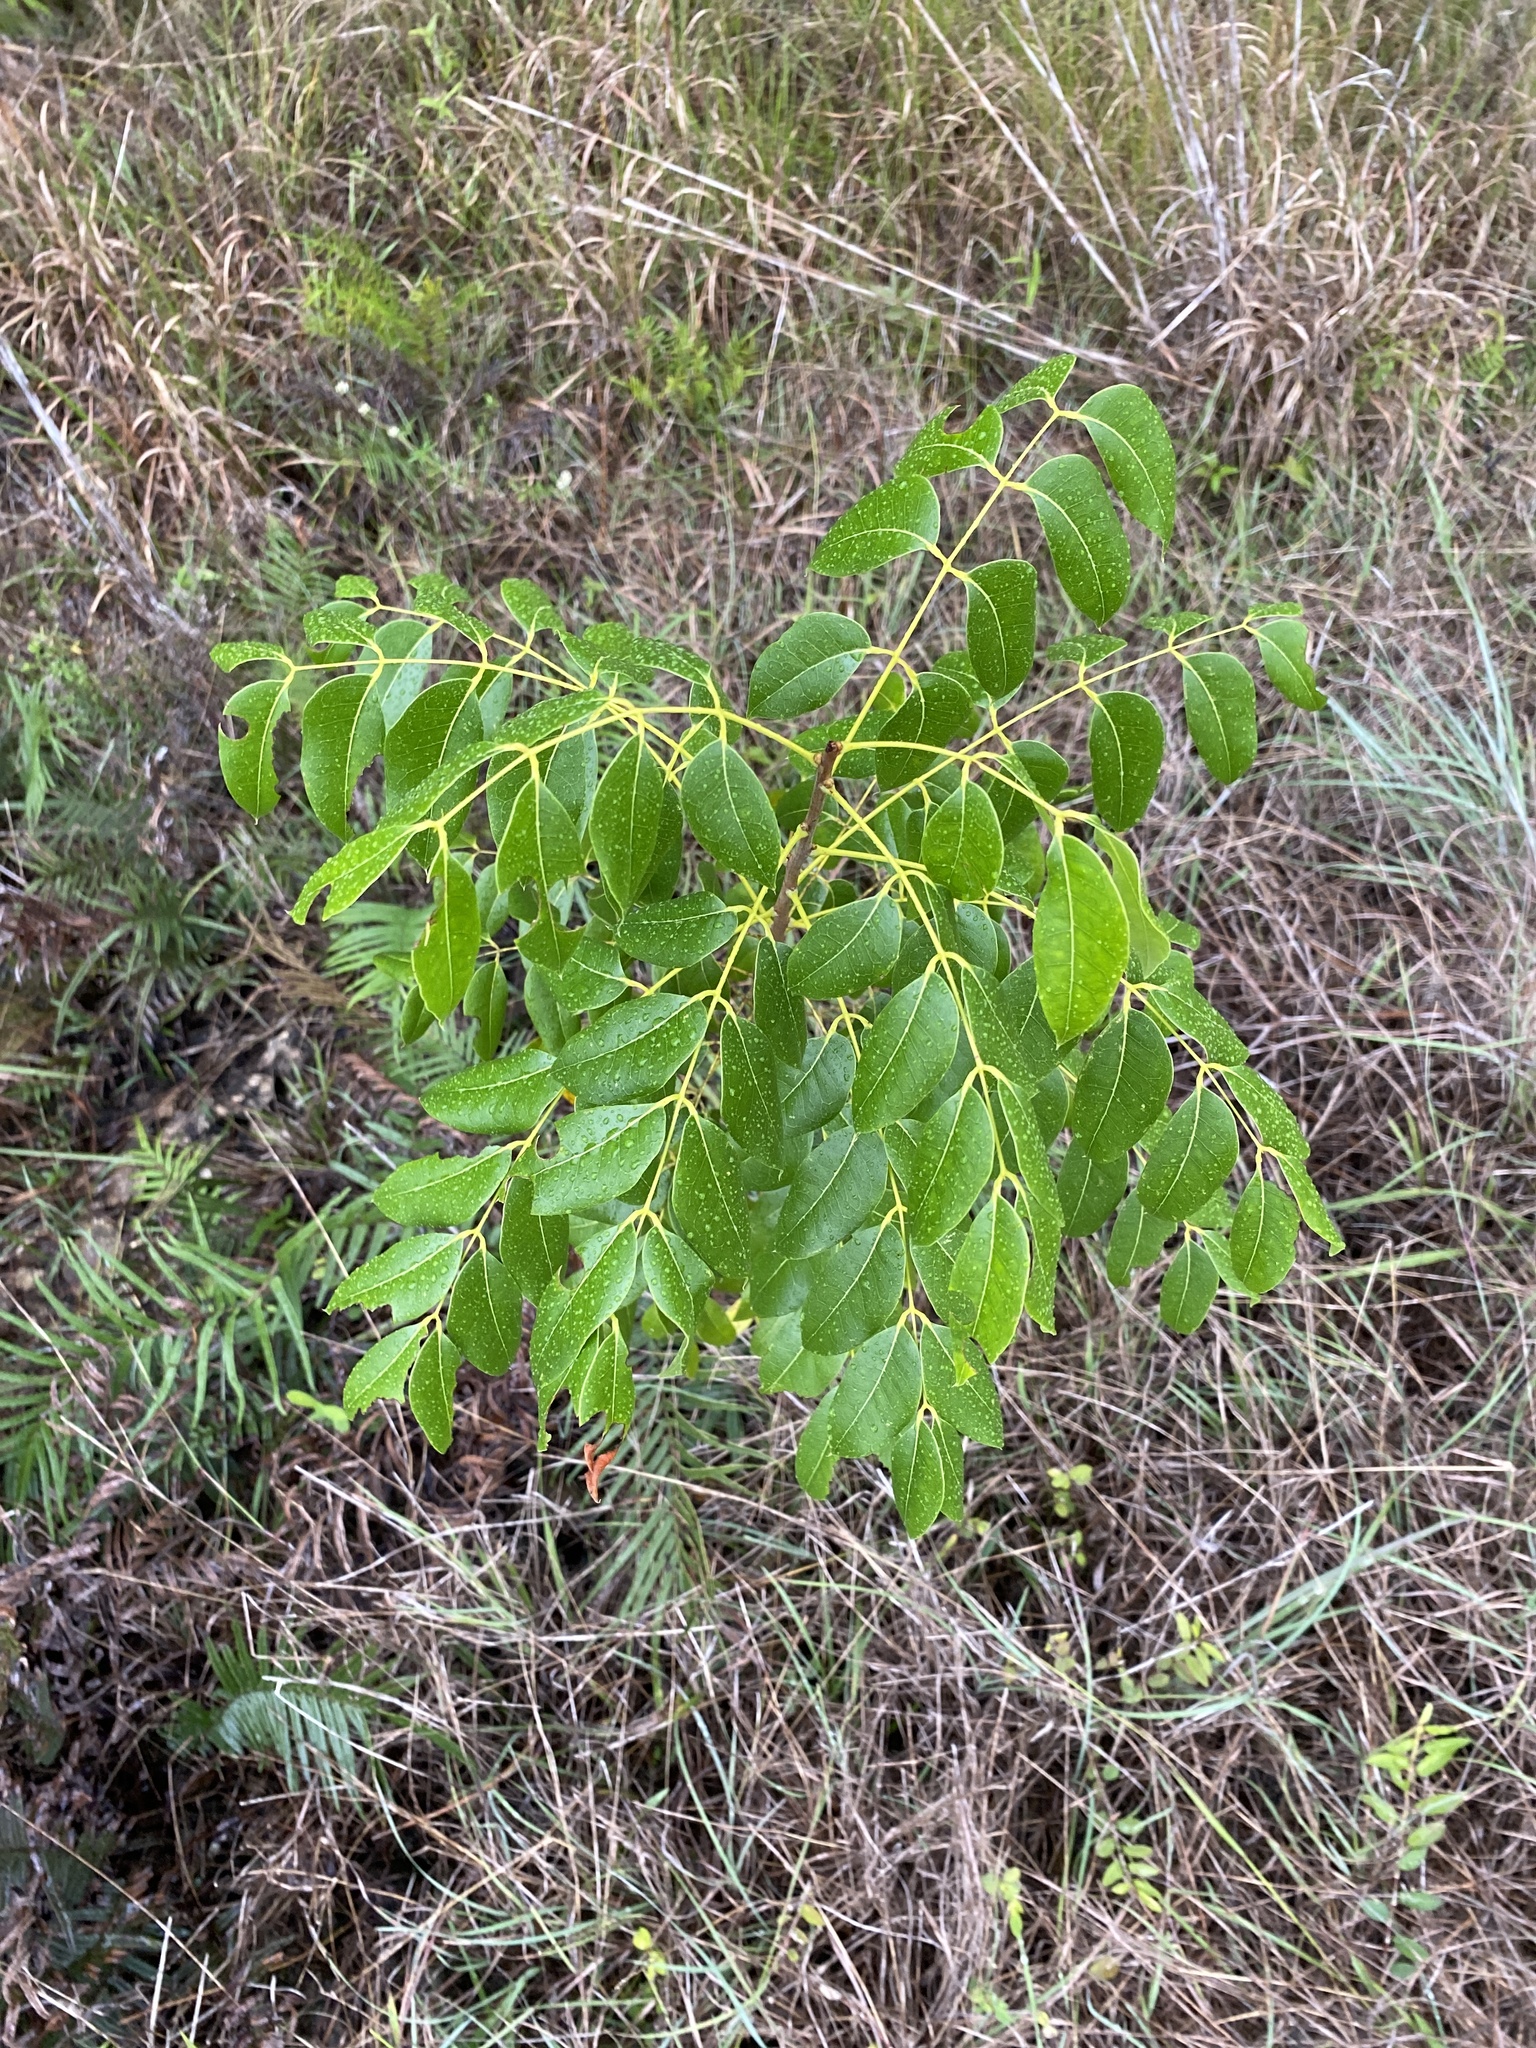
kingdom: Plantae
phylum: Tracheophyta
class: Magnoliopsida
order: Sapindales
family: Meliaceae
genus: Swietenia
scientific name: Swietenia mahagoni
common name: West indian mahogany
